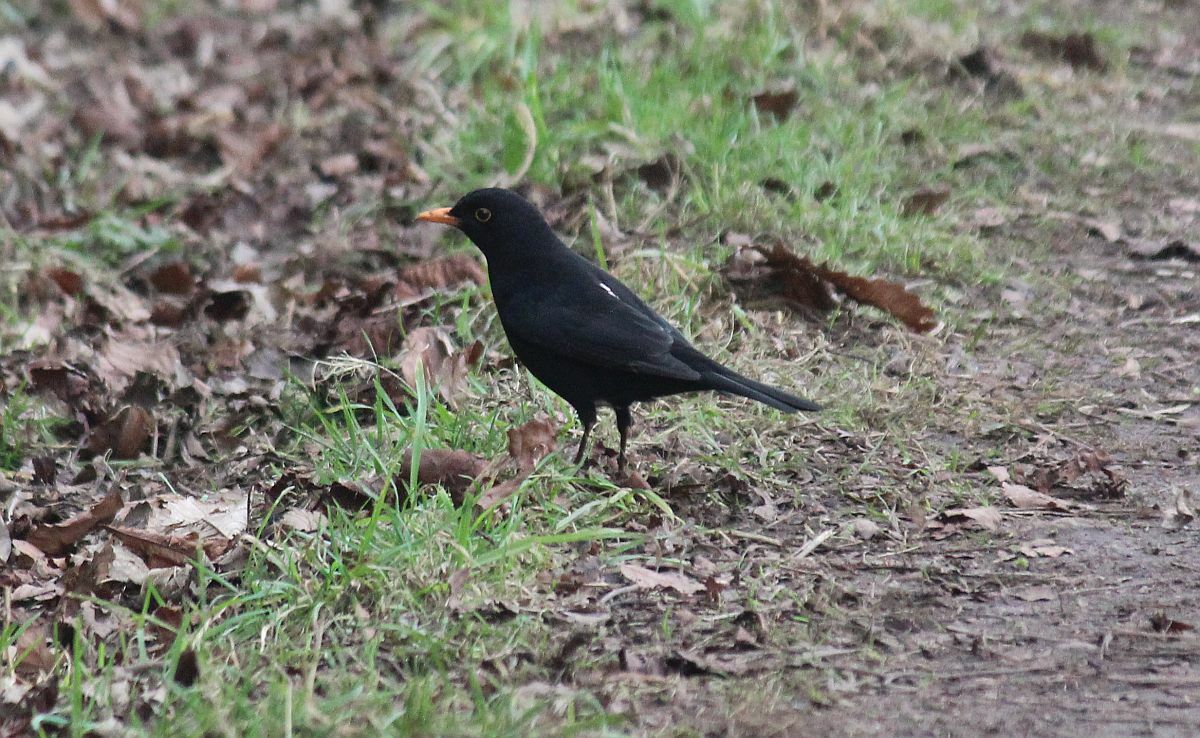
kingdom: Animalia
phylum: Chordata
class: Aves
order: Passeriformes
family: Turdidae
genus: Turdus
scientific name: Turdus merula
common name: Common blackbird
